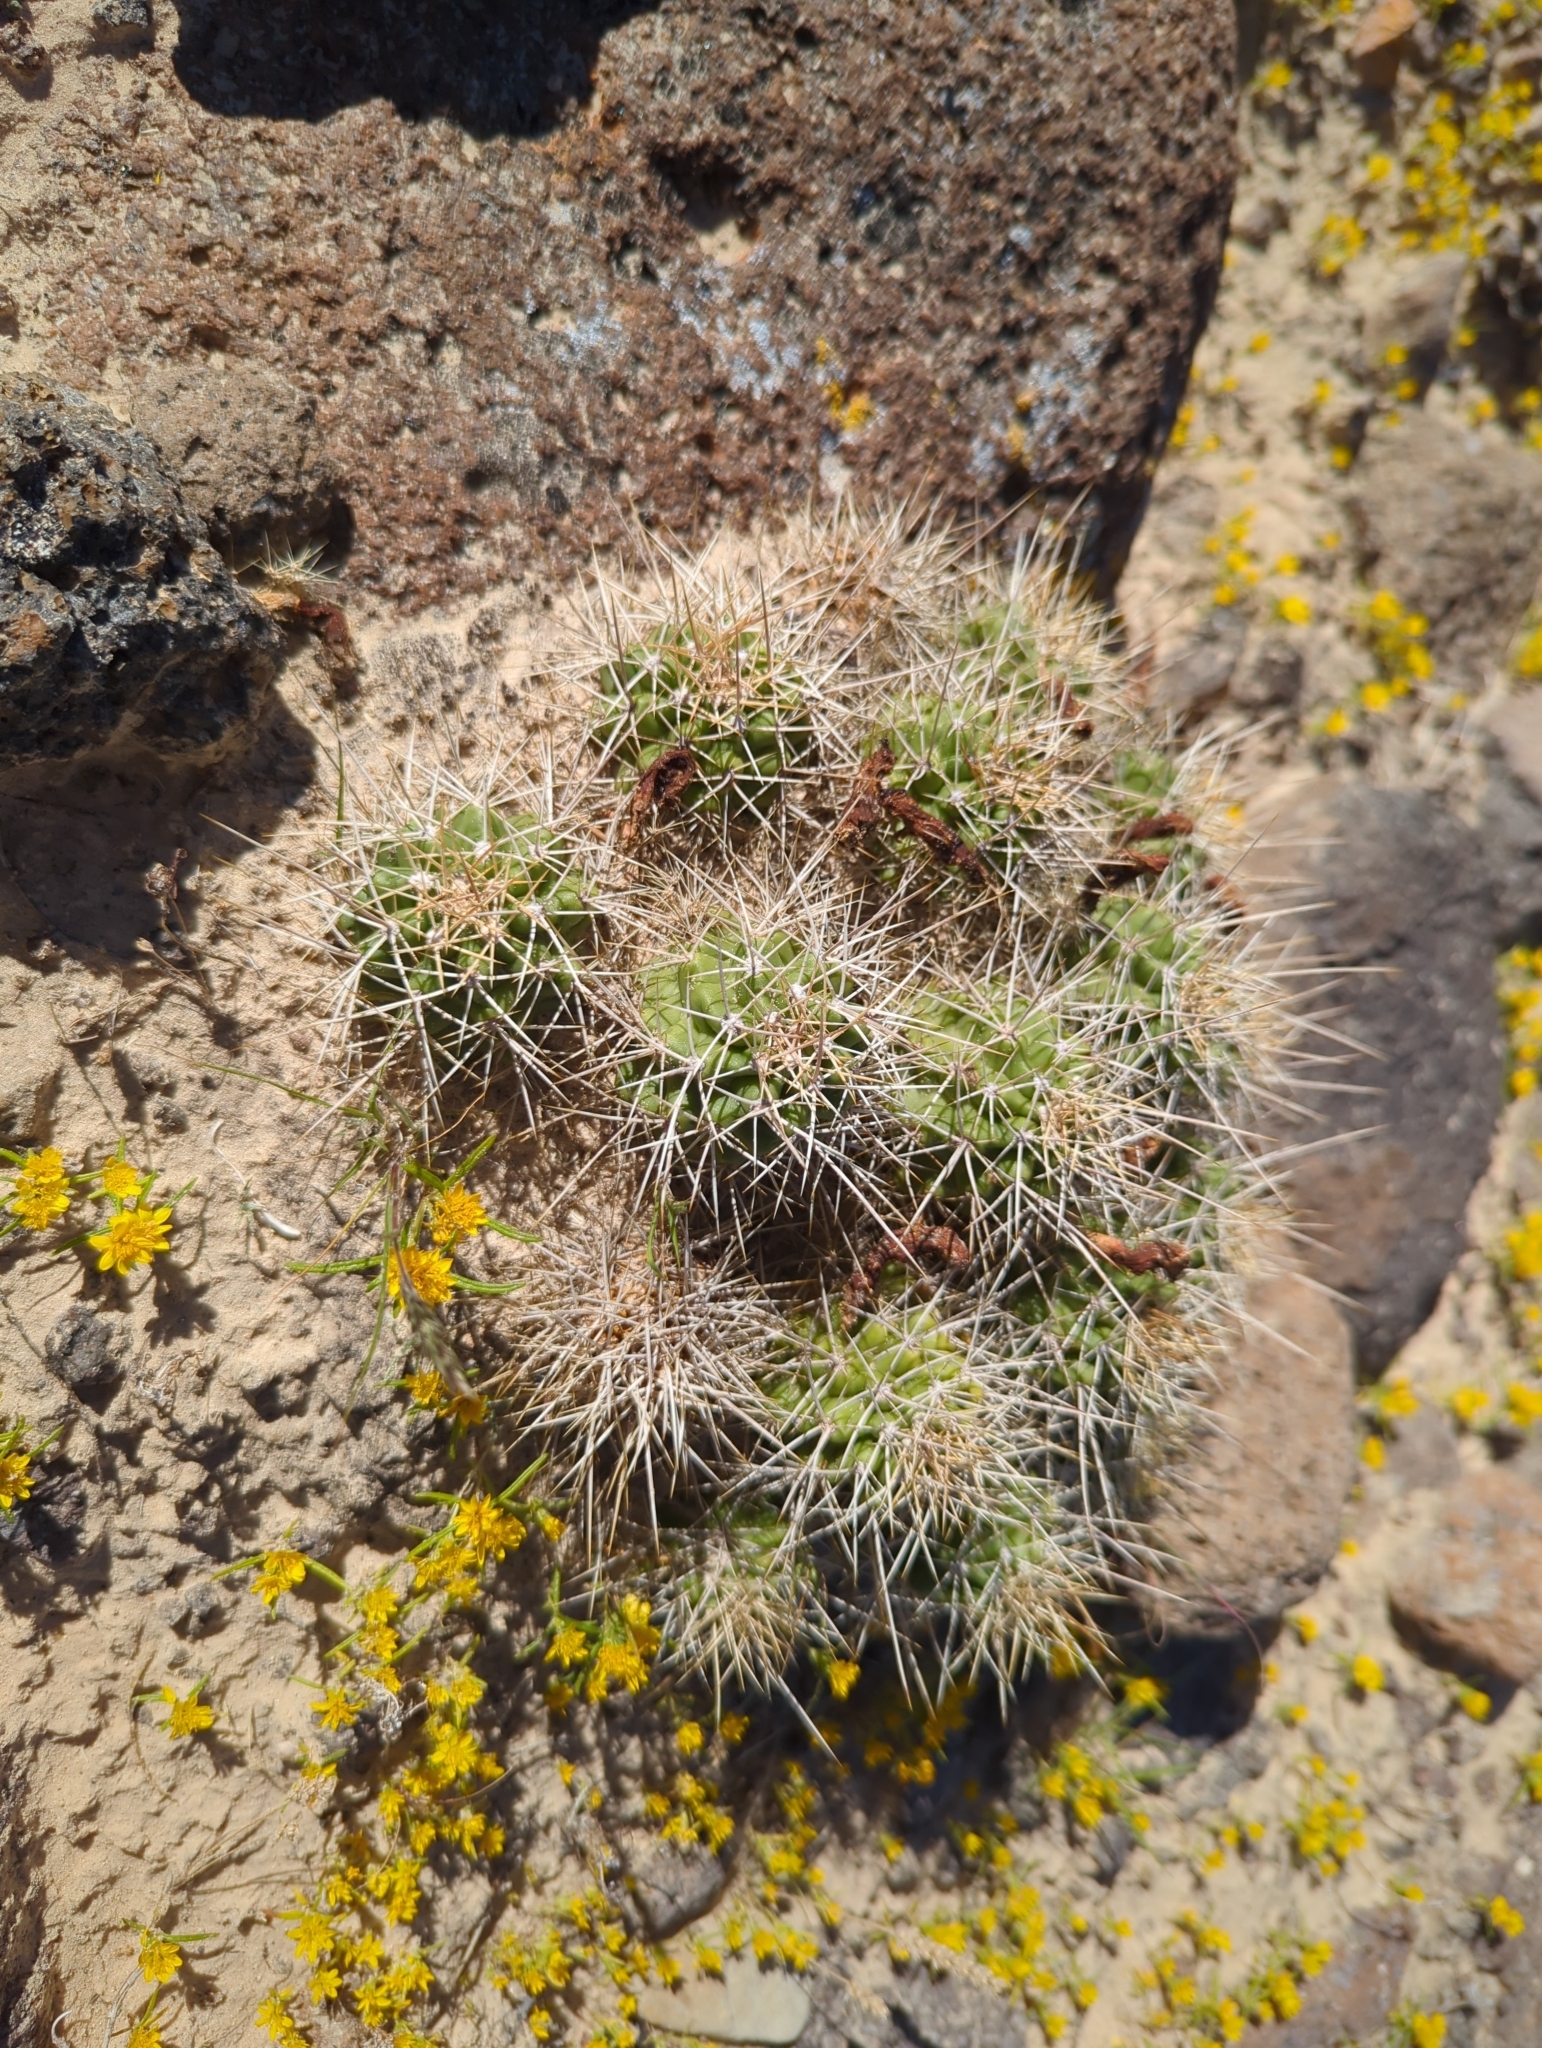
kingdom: Plantae
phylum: Tracheophyta
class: Magnoliopsida
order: Caryophyllales
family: Cactaceae
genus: Echinocereus
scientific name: Echinocereus triglochidiatus
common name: Claretcup hedgehog
